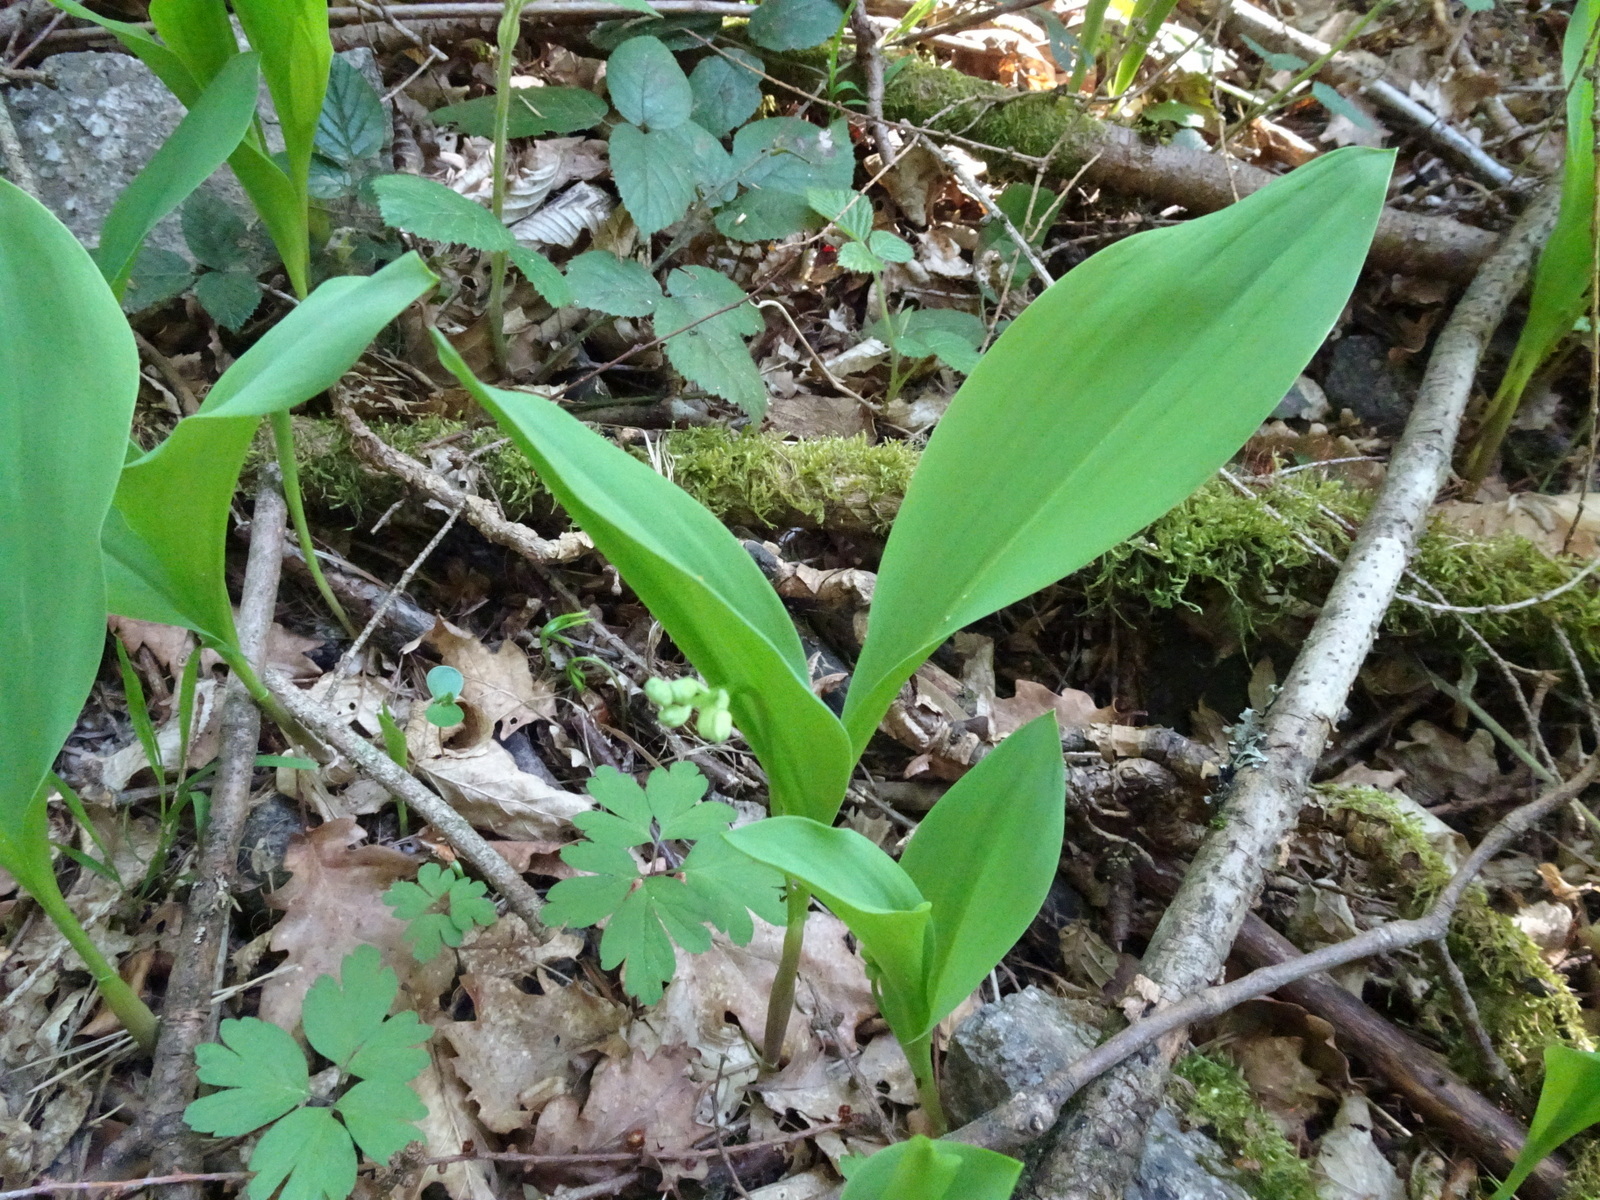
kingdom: Plantae
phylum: Tracheophyta
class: Liliopsida
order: Asparagales
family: Asparagaceae
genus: Convallaria
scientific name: Convallaria majalis
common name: Lily-of-the-valley
